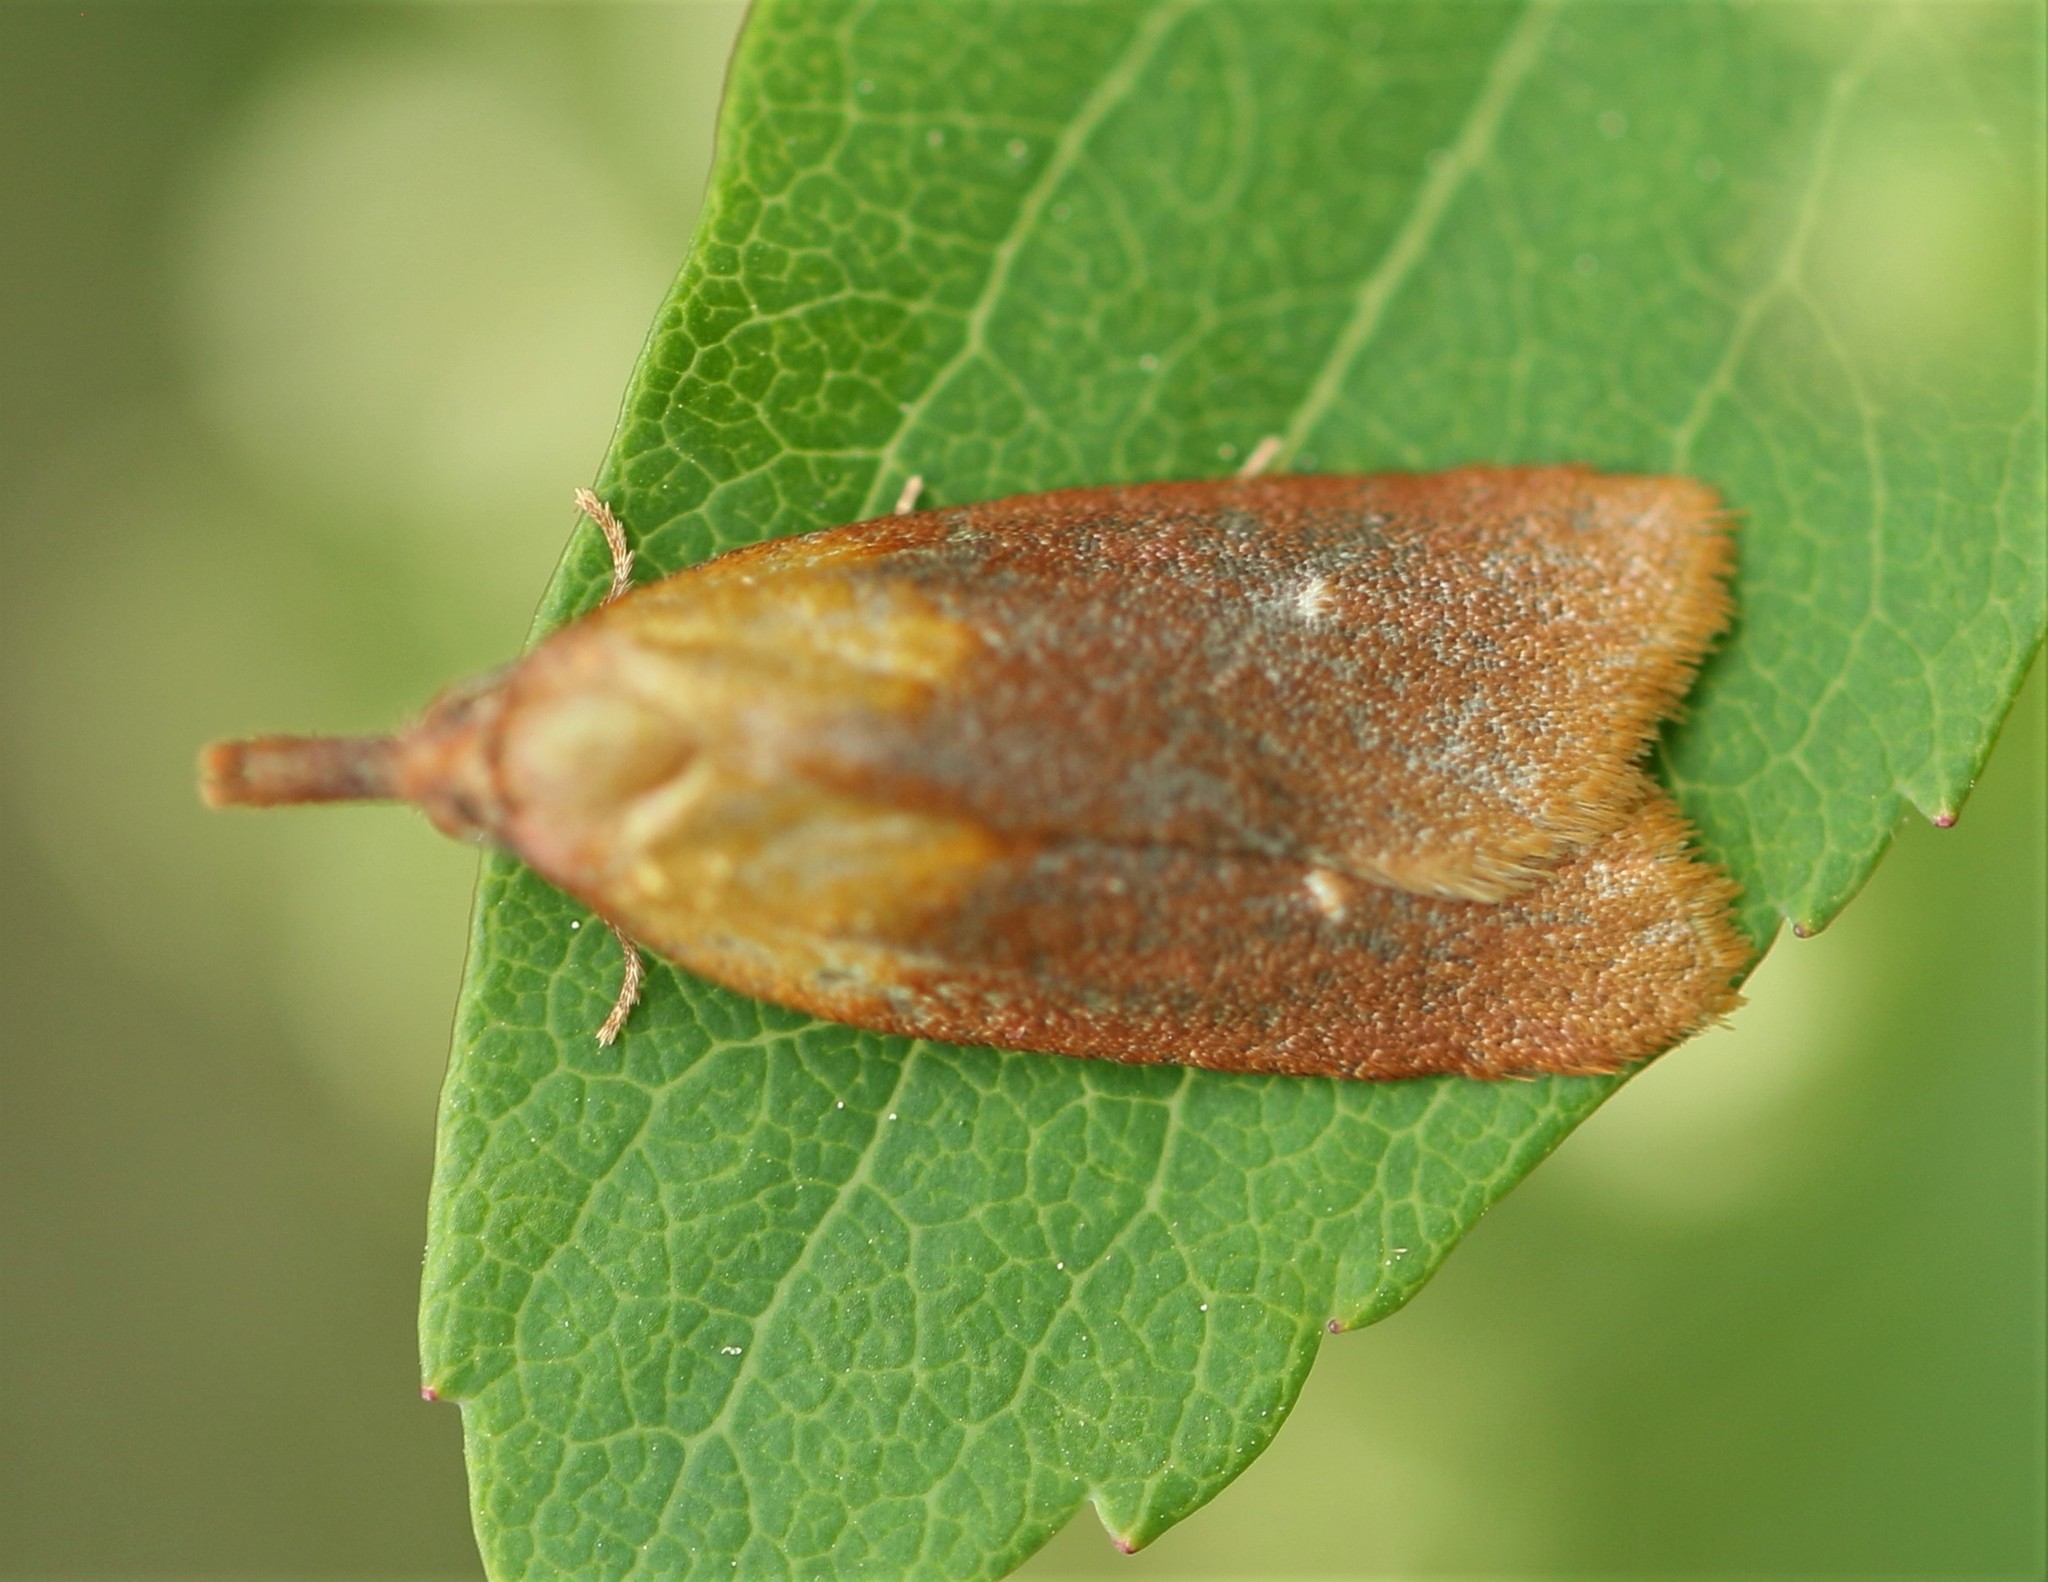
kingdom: Animalia
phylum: Arthropoda
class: Insecta
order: Lepidoptera
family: Tortricidae
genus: Sparganothis
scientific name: Sparganothis violaceana
